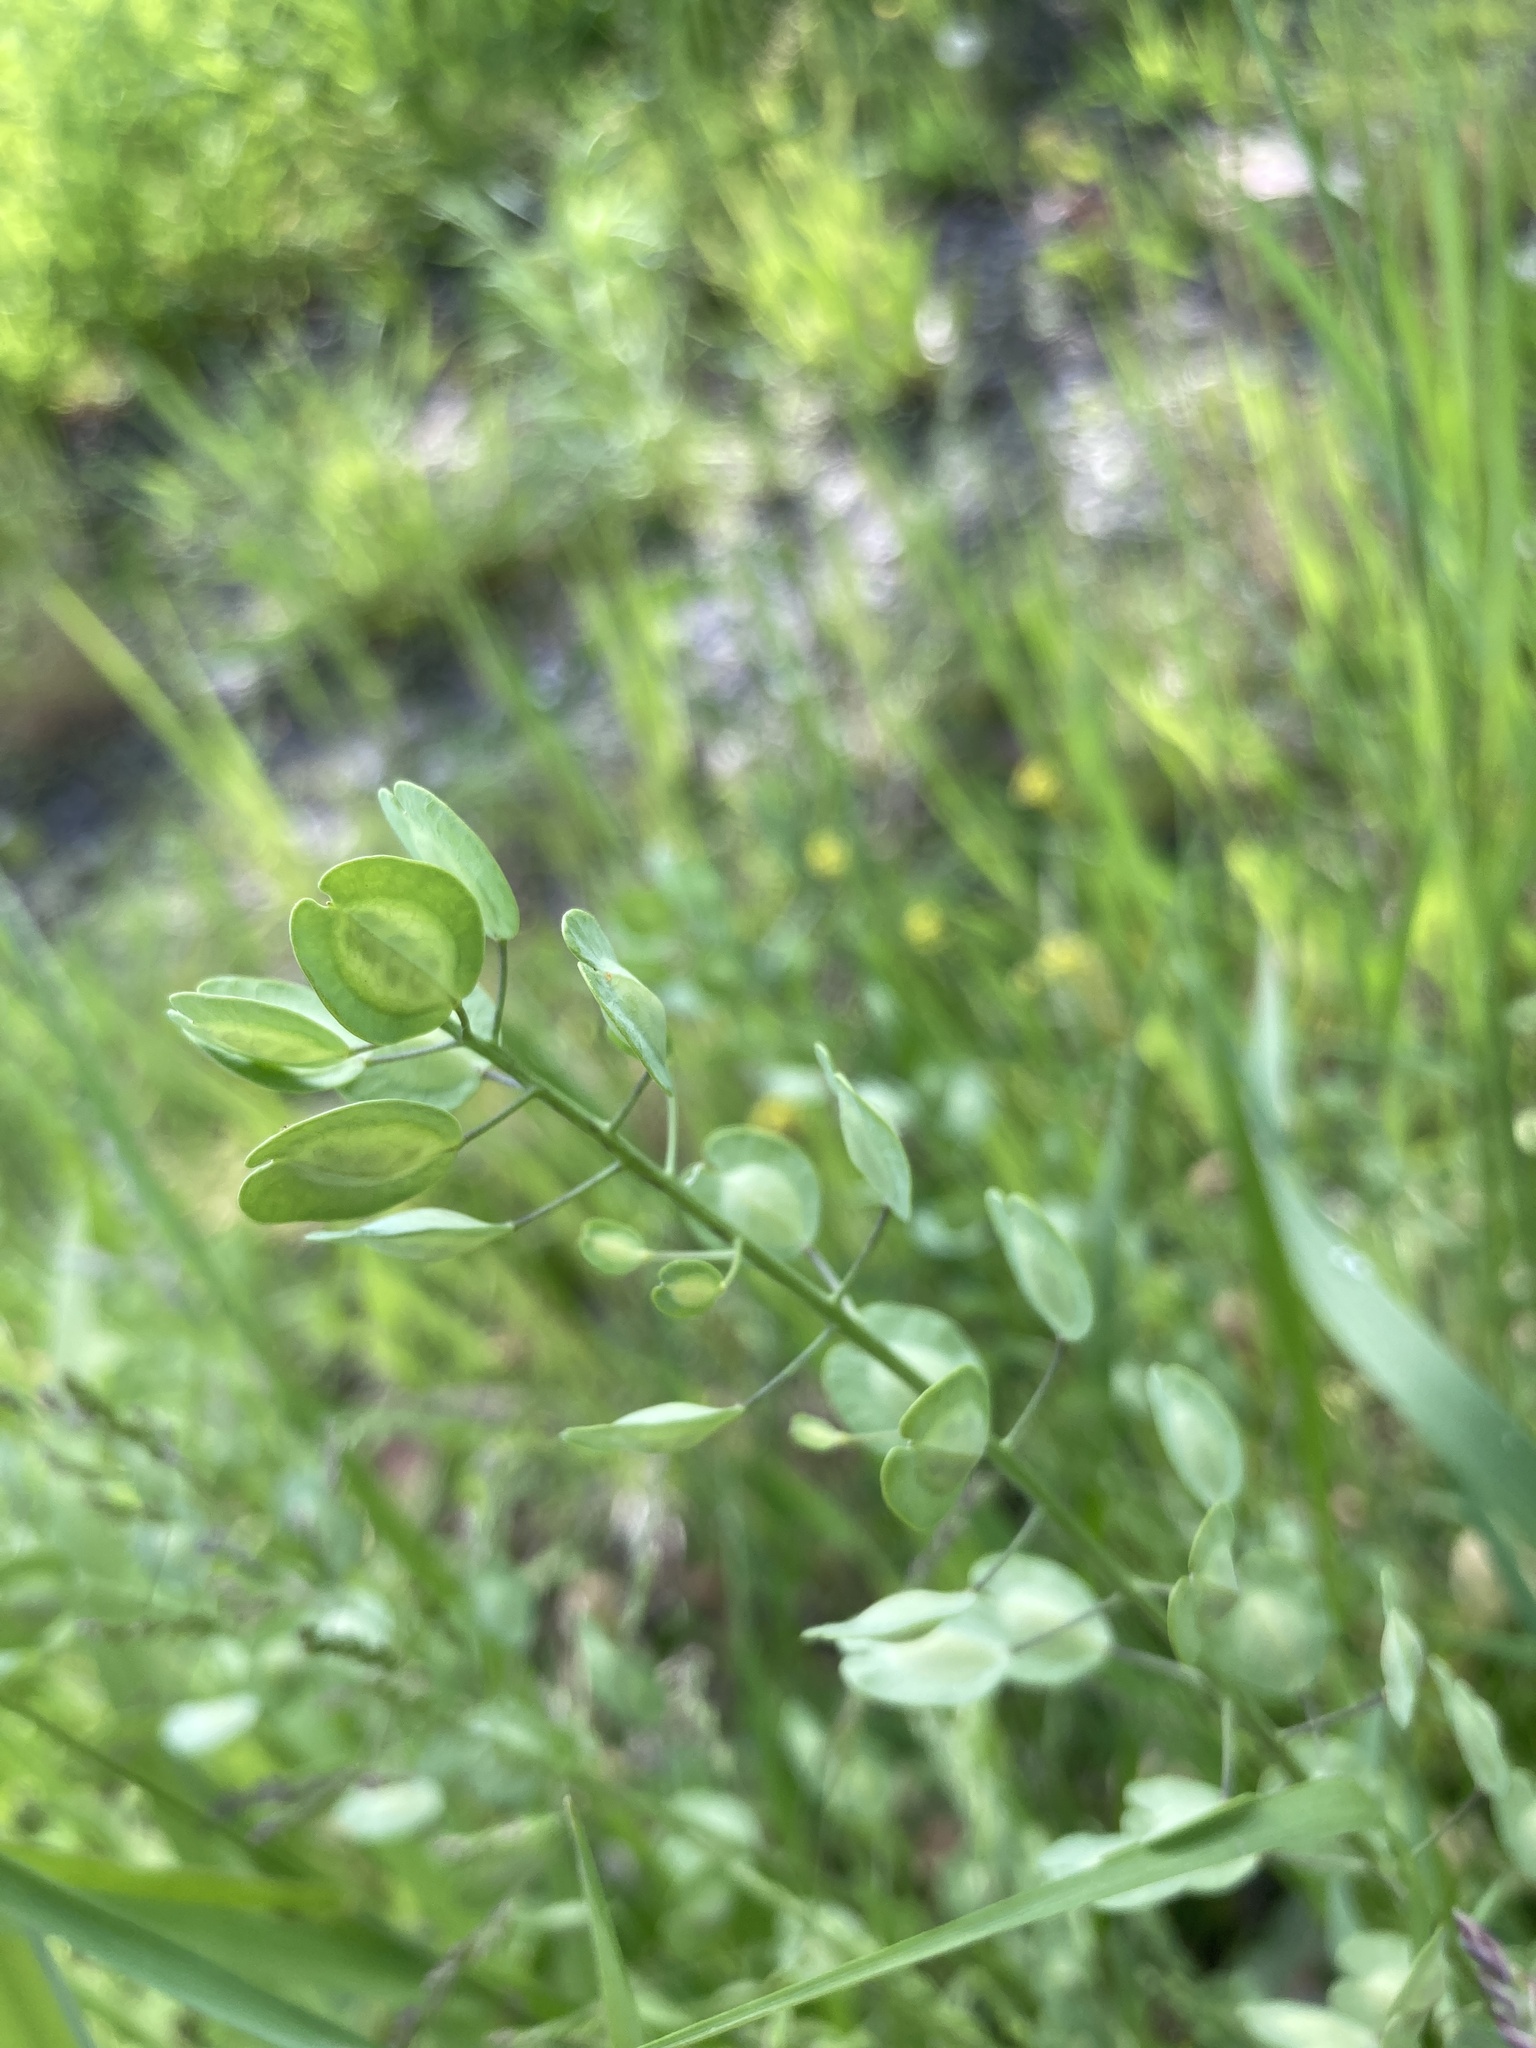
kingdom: Plantae
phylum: Tracheophyta
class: Magnoliopsida
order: Brassicales
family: Brassicaceae
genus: Thlaspi
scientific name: Thlaspi arvense
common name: Field pennycress
